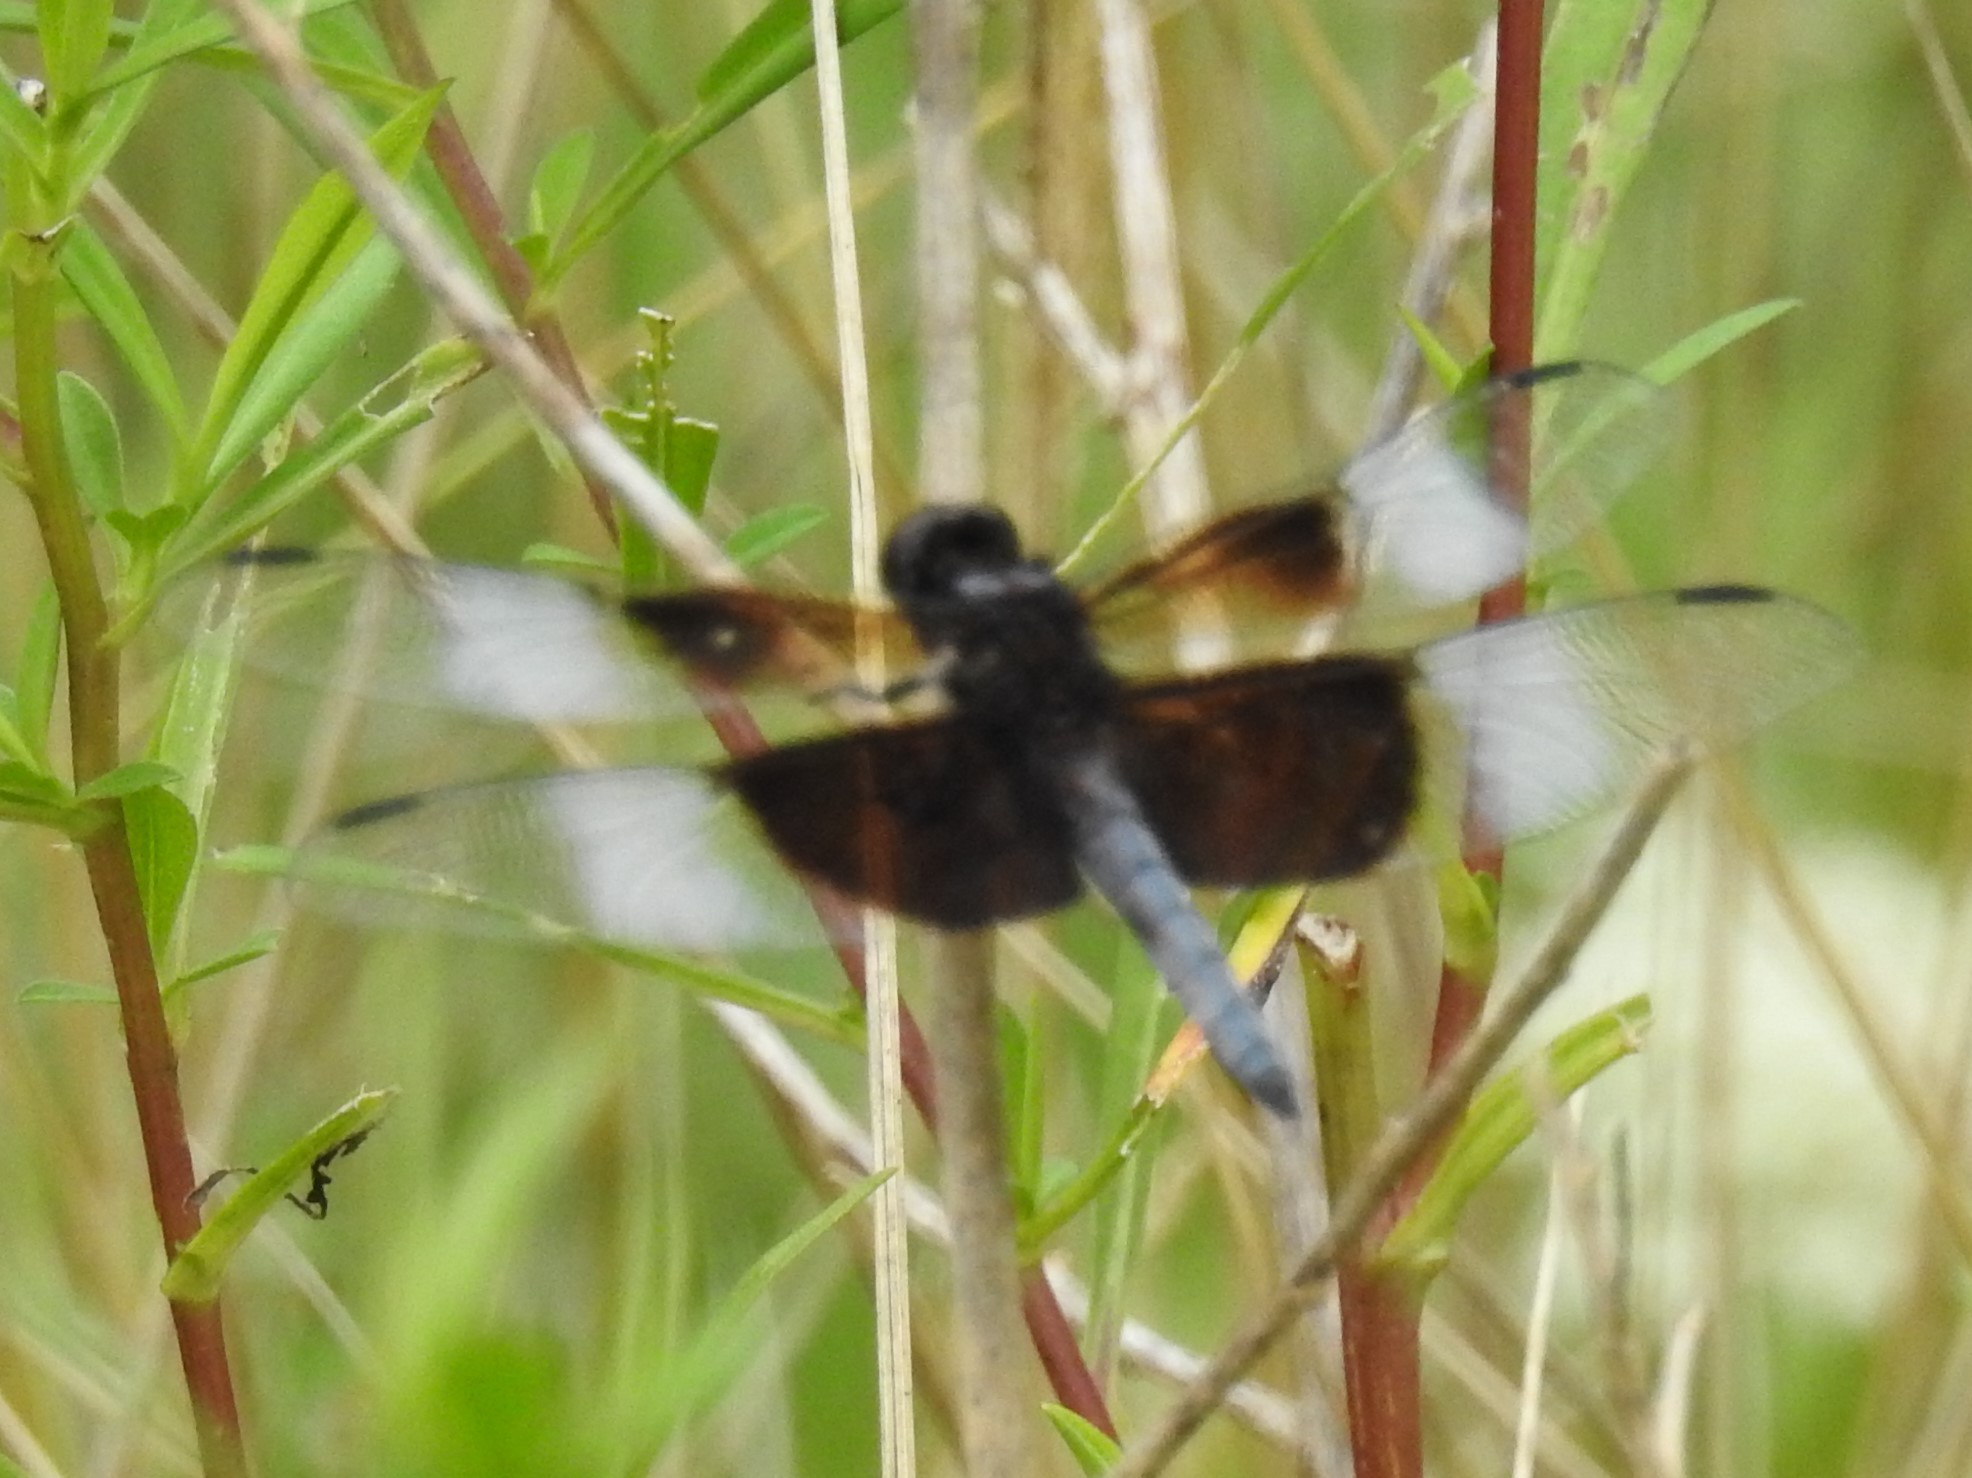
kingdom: Animalia
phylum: Arthropoda
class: Insecta
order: Odonata
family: Libellulidae
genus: Libellula
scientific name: Libellula luctuosa
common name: Widow skimmer
